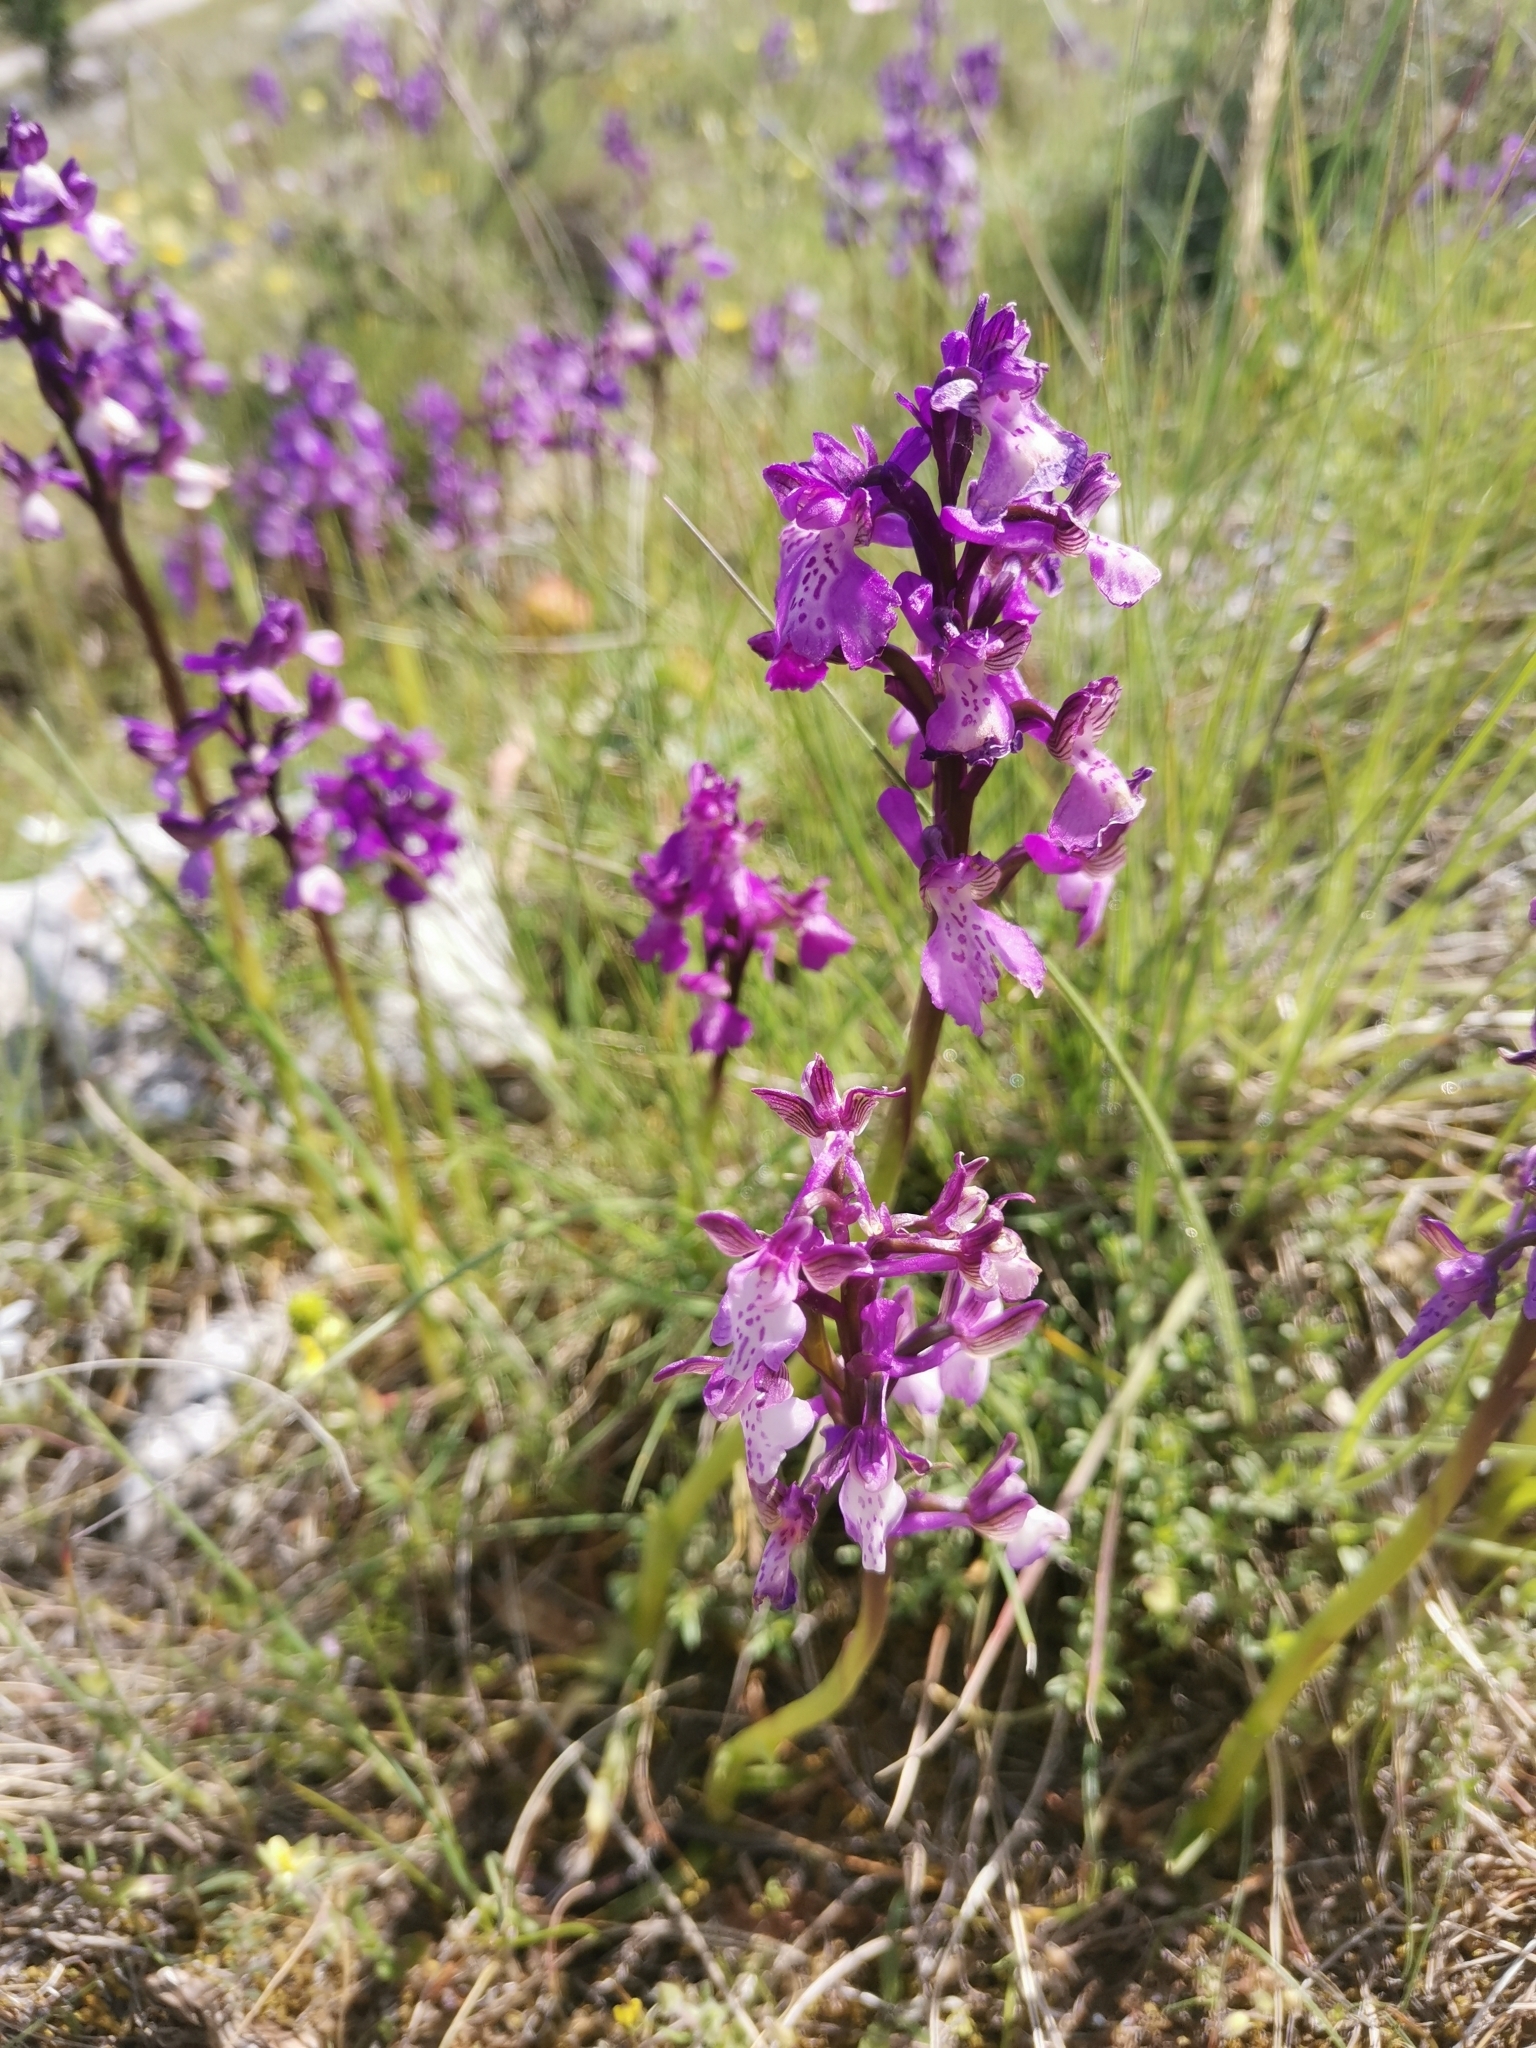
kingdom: Plantae
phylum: Tracheophyta
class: Liliopsida
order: Asparagales
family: Orchidaceae
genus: Anacamptis
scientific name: Anacamptis morio
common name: Green-winged orchid
